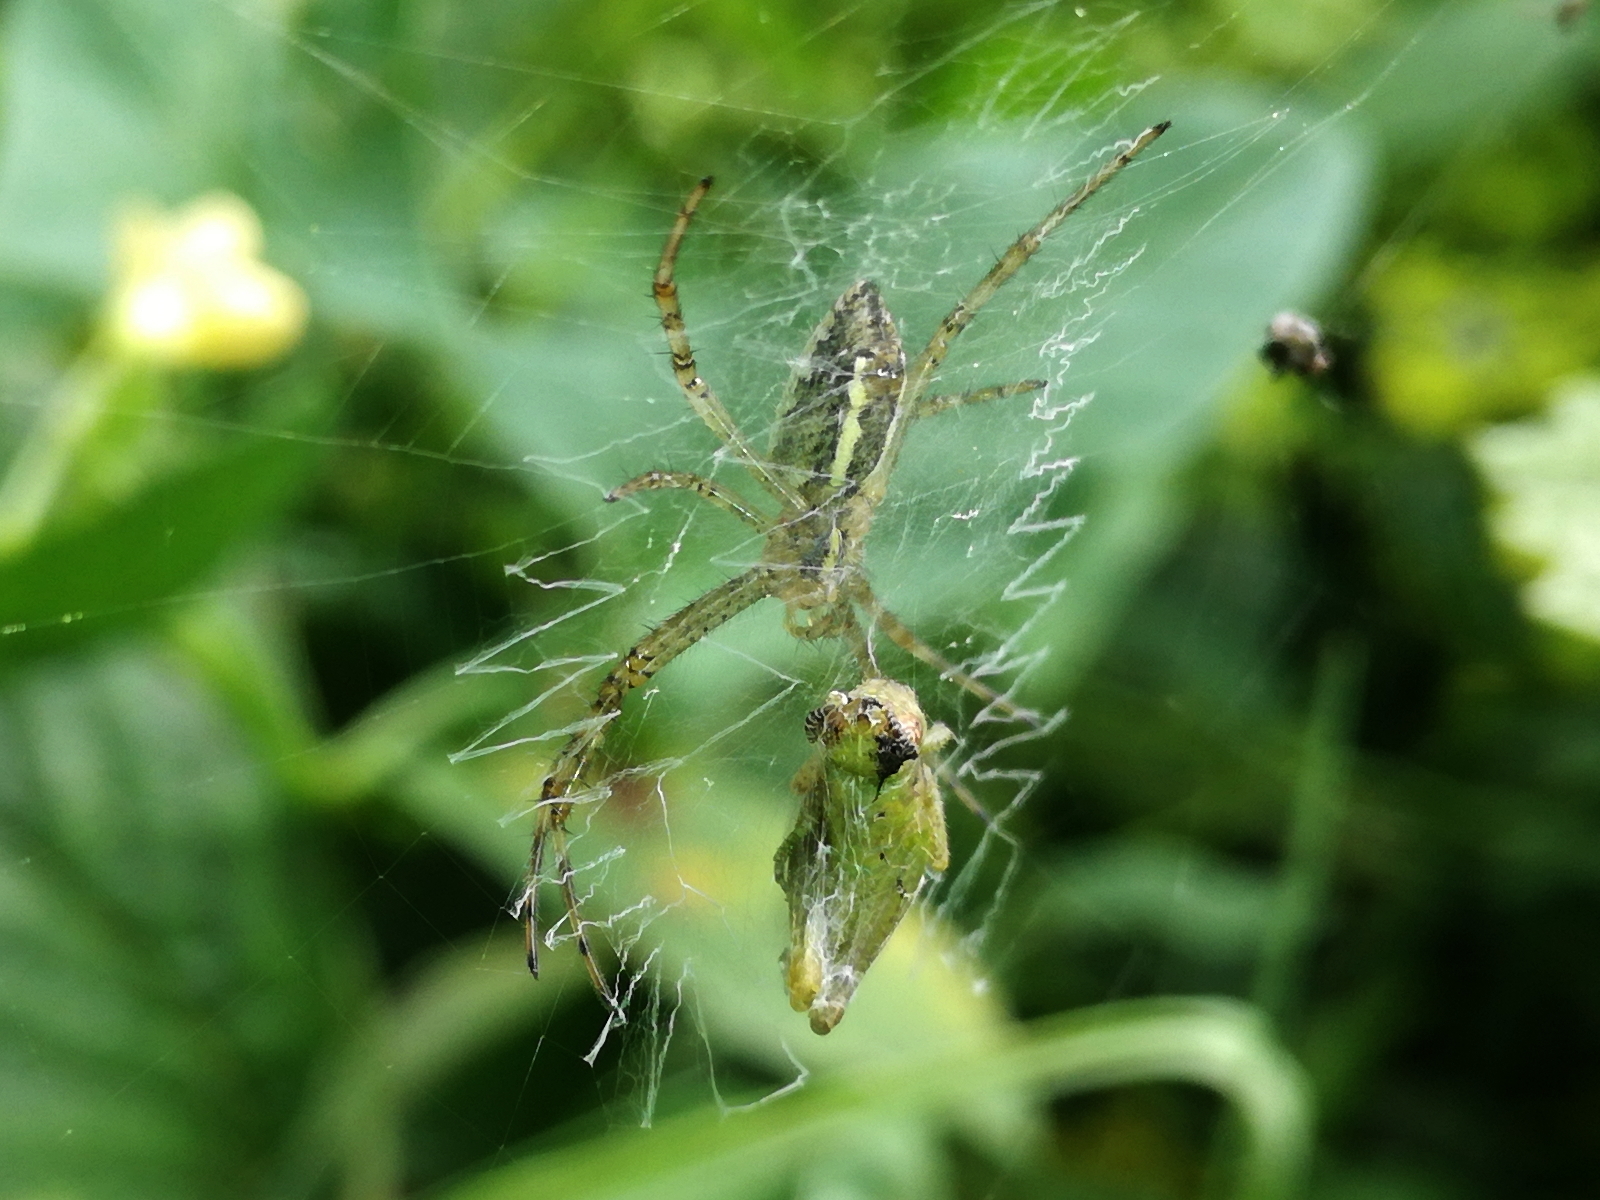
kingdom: Animalia
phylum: Arthropoda
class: Arachnida
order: Araneae
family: Araneidae
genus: Argiope
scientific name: Argiope bruennichi
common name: Wasp spider
